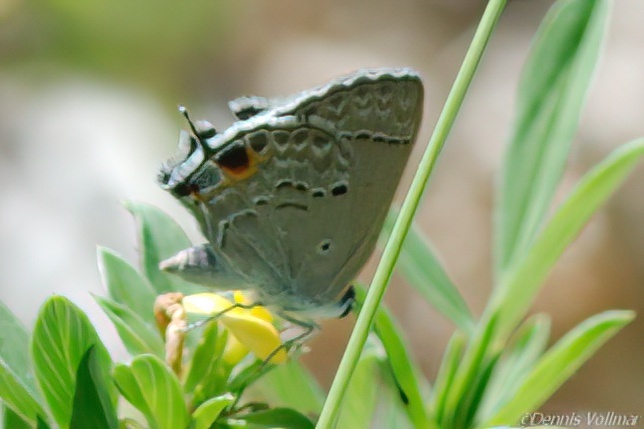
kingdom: Animalia
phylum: Arthropoda
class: Insecta
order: Lepidoptera
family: Lycaenidae
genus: Callicista
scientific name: Callicista columella
